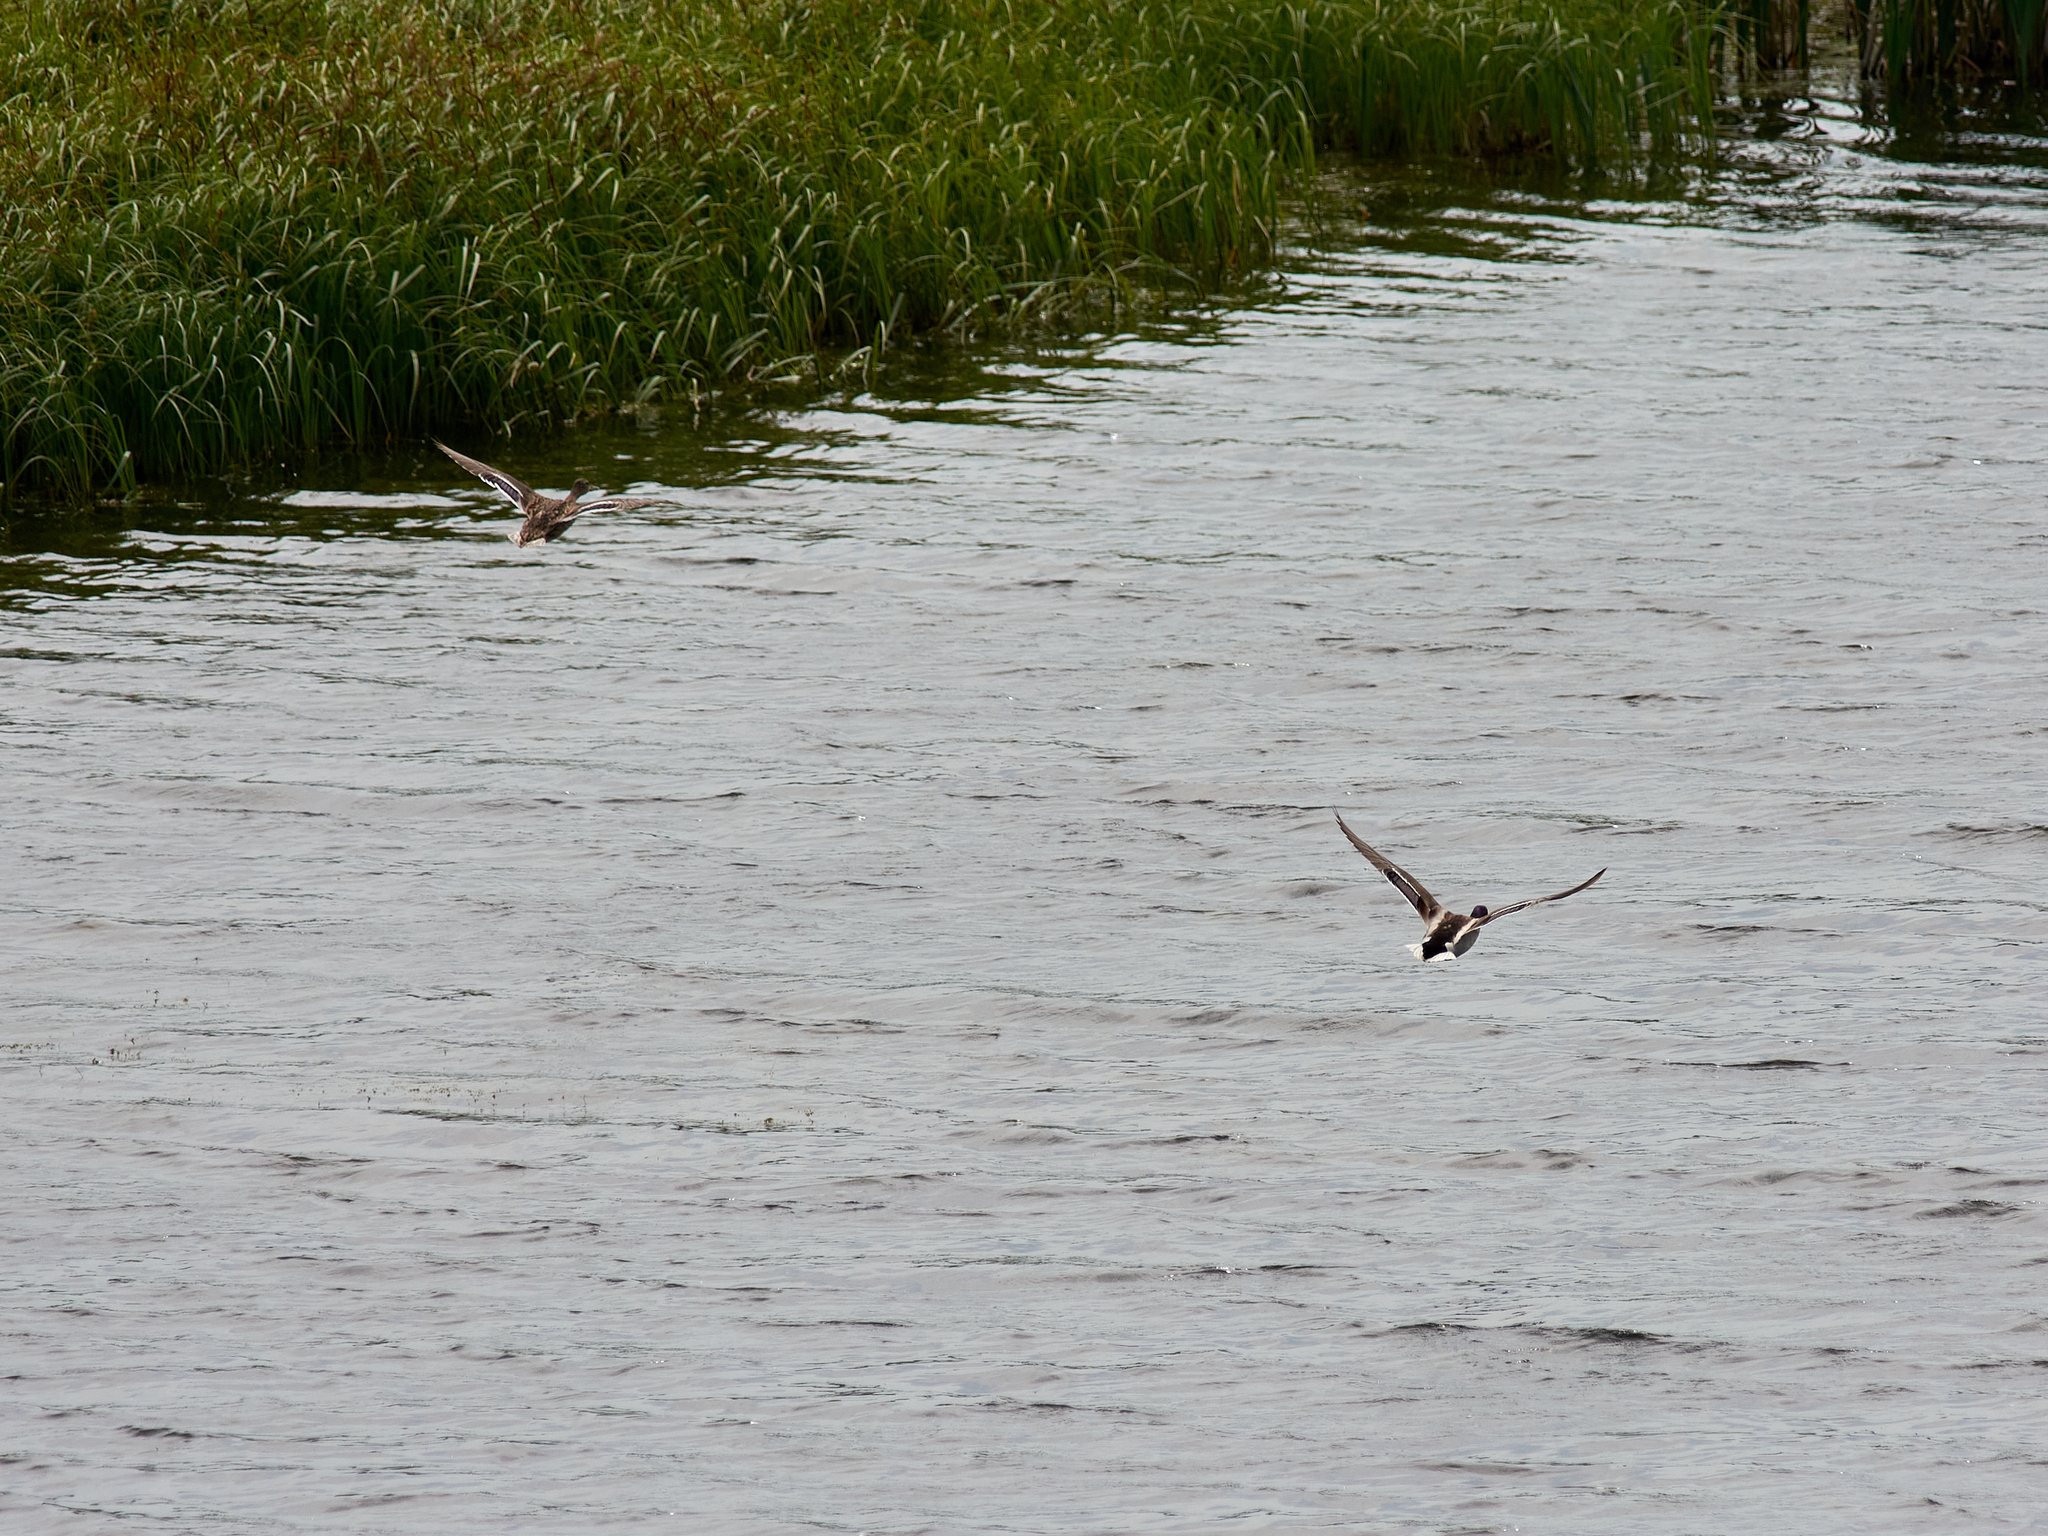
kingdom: Animalia
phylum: Chordata
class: Aves
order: Anseriformes
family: Anatidae
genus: Anas
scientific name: Anas platyrhynchos
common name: Mallard
